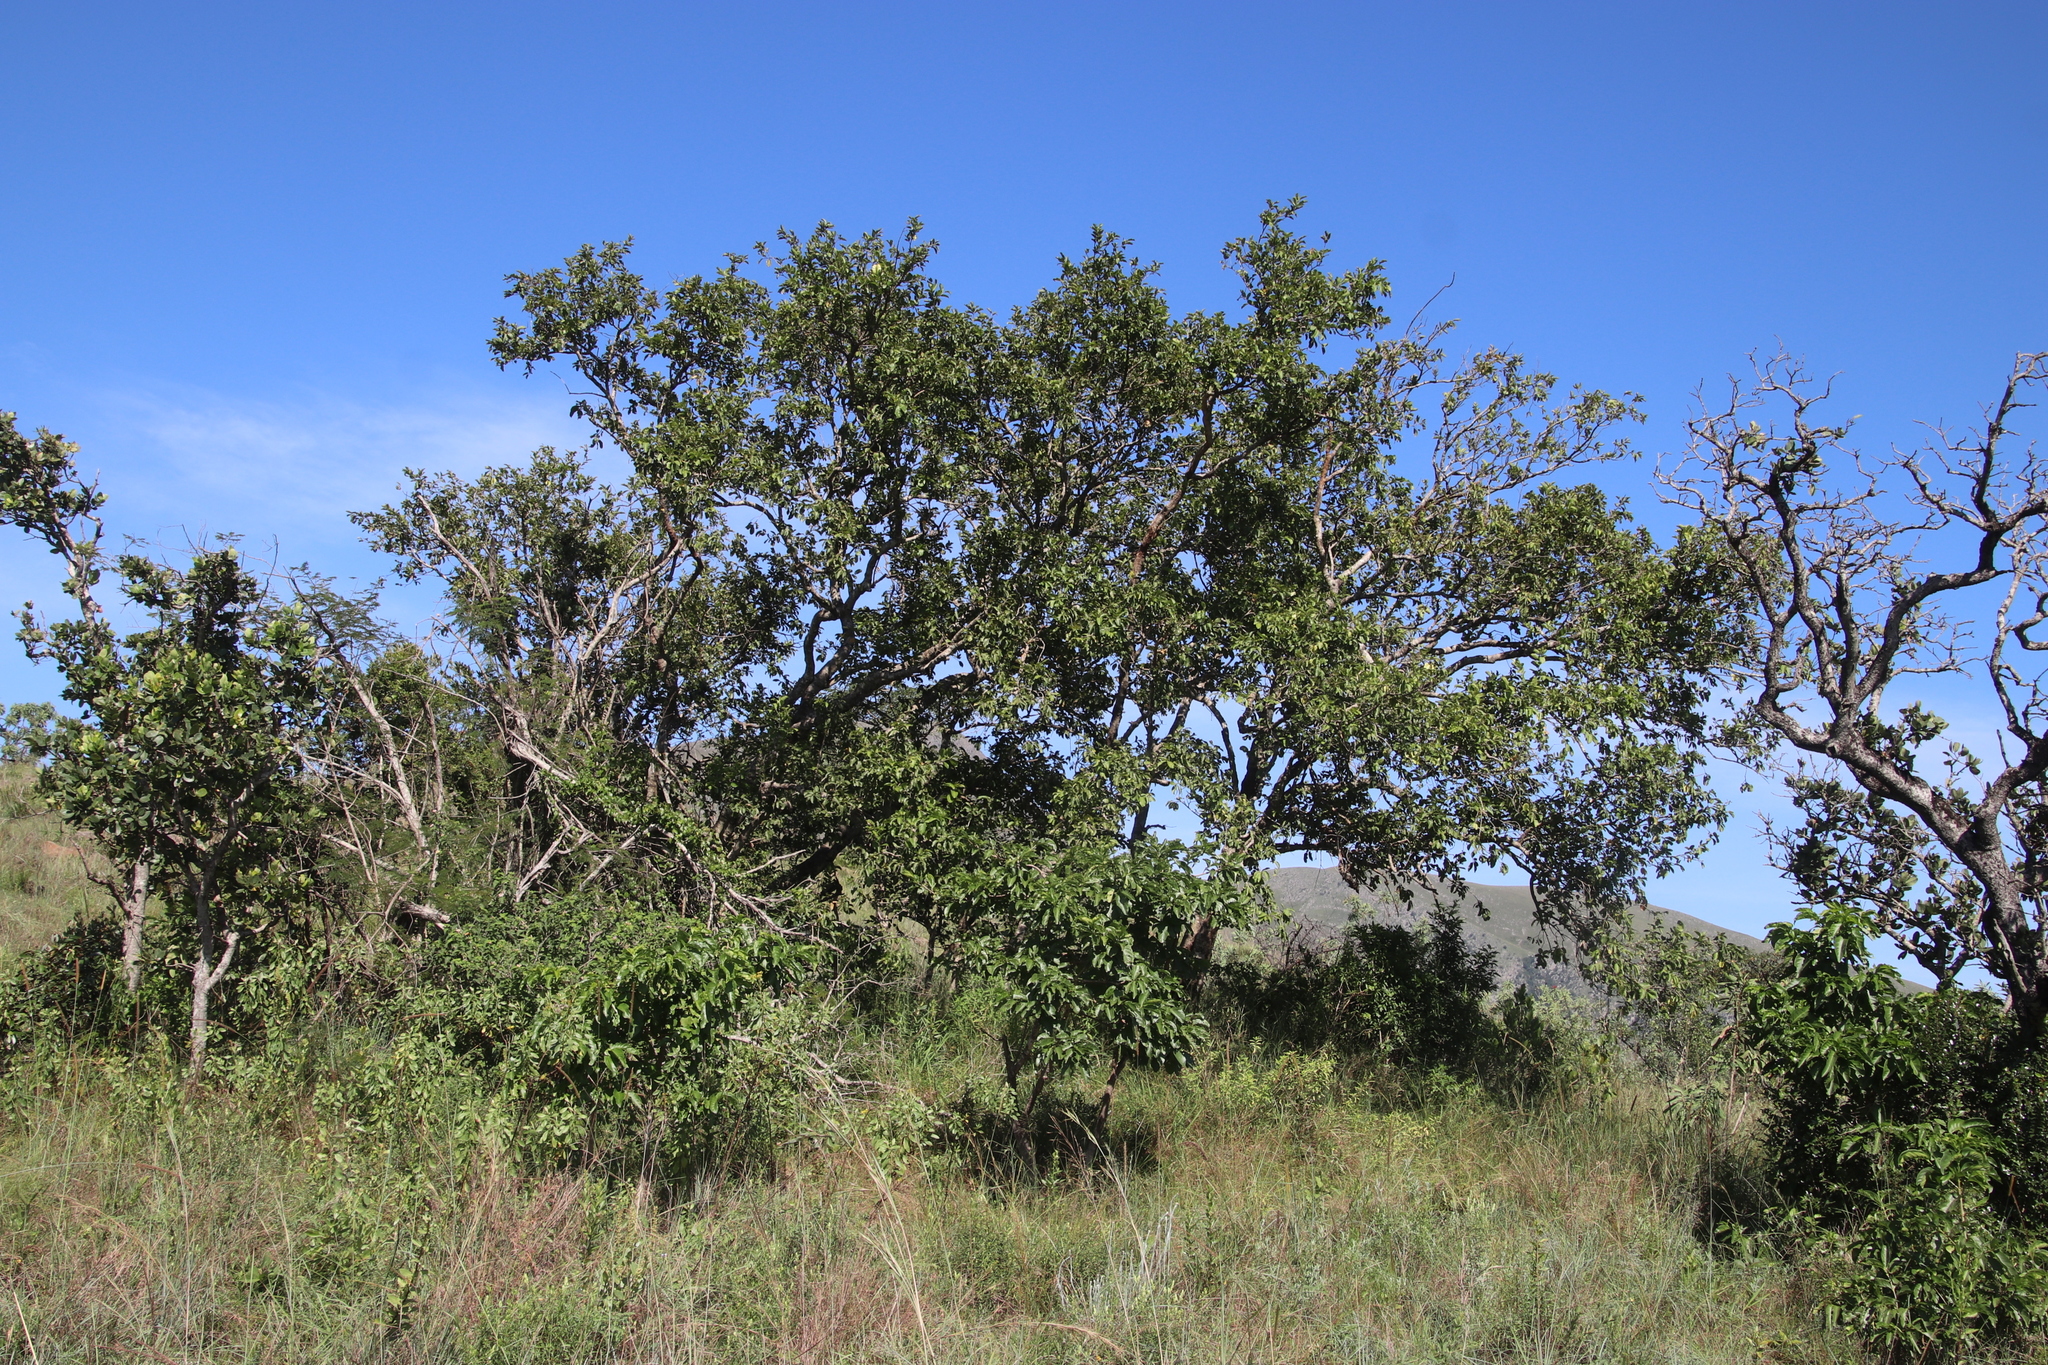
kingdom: Plantae
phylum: Tracheophyta
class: Magnoliopsida
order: Myrtales
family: Combretaceae
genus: Combretum
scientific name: Combretum zeyheri
